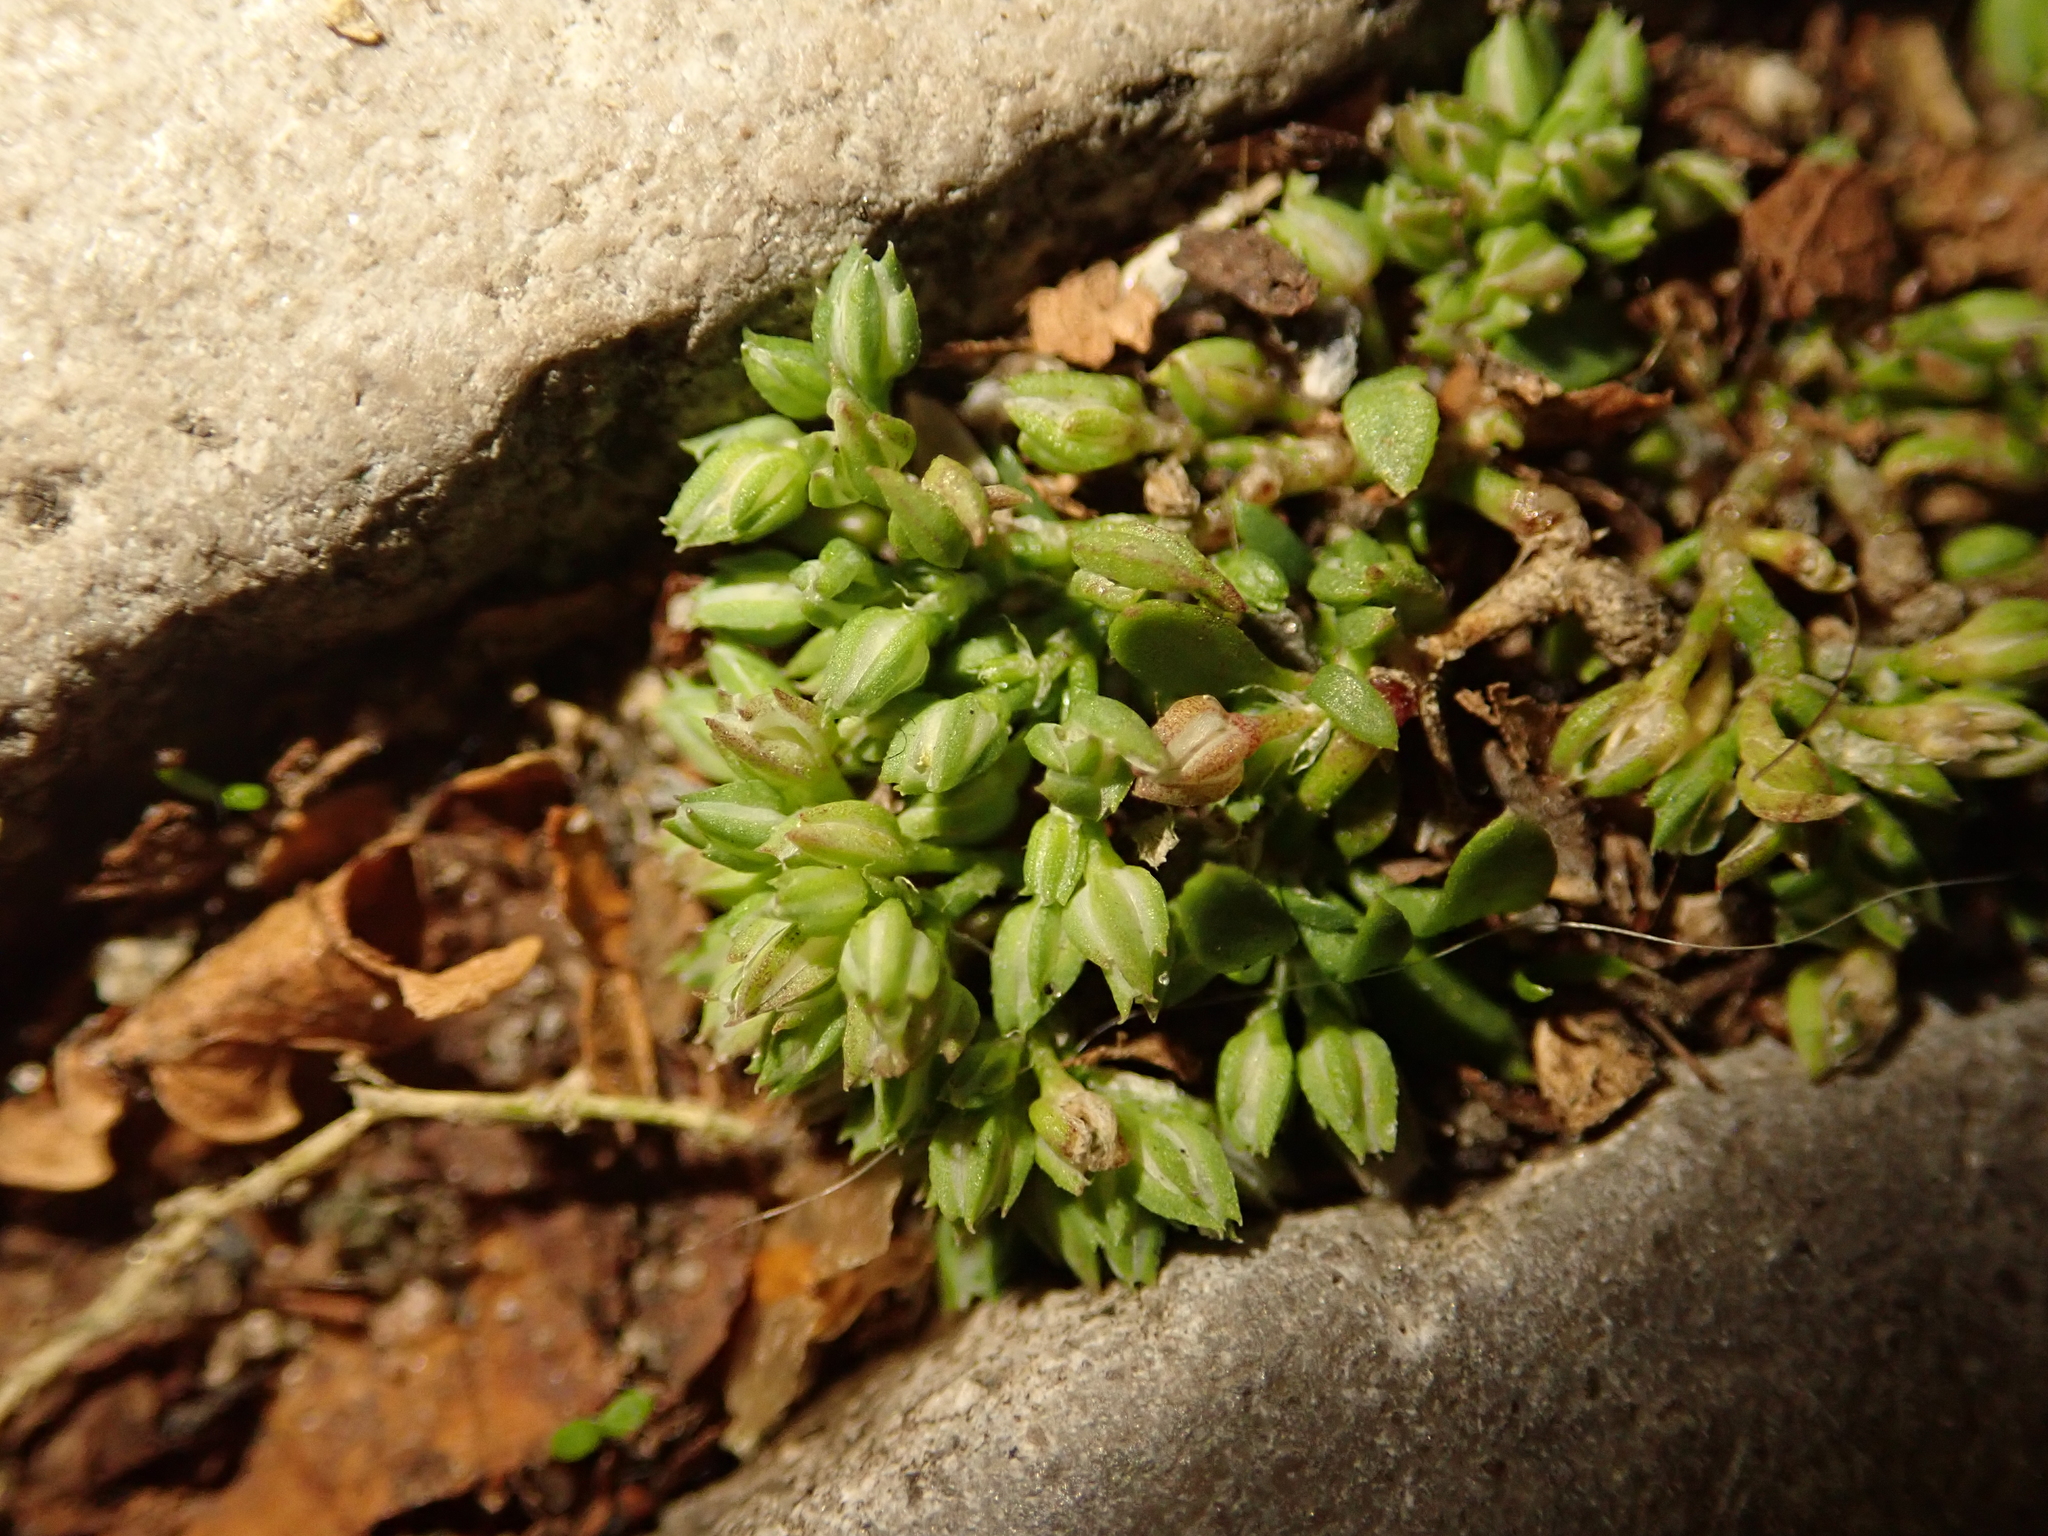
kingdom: Plantae
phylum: Tracheophyta
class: Magnoliopsida
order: Caryophyllales
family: Caryophyllaceae
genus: Polycarpon
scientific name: Polycarpon tetraphyllum
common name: Four-leaved all-seed
